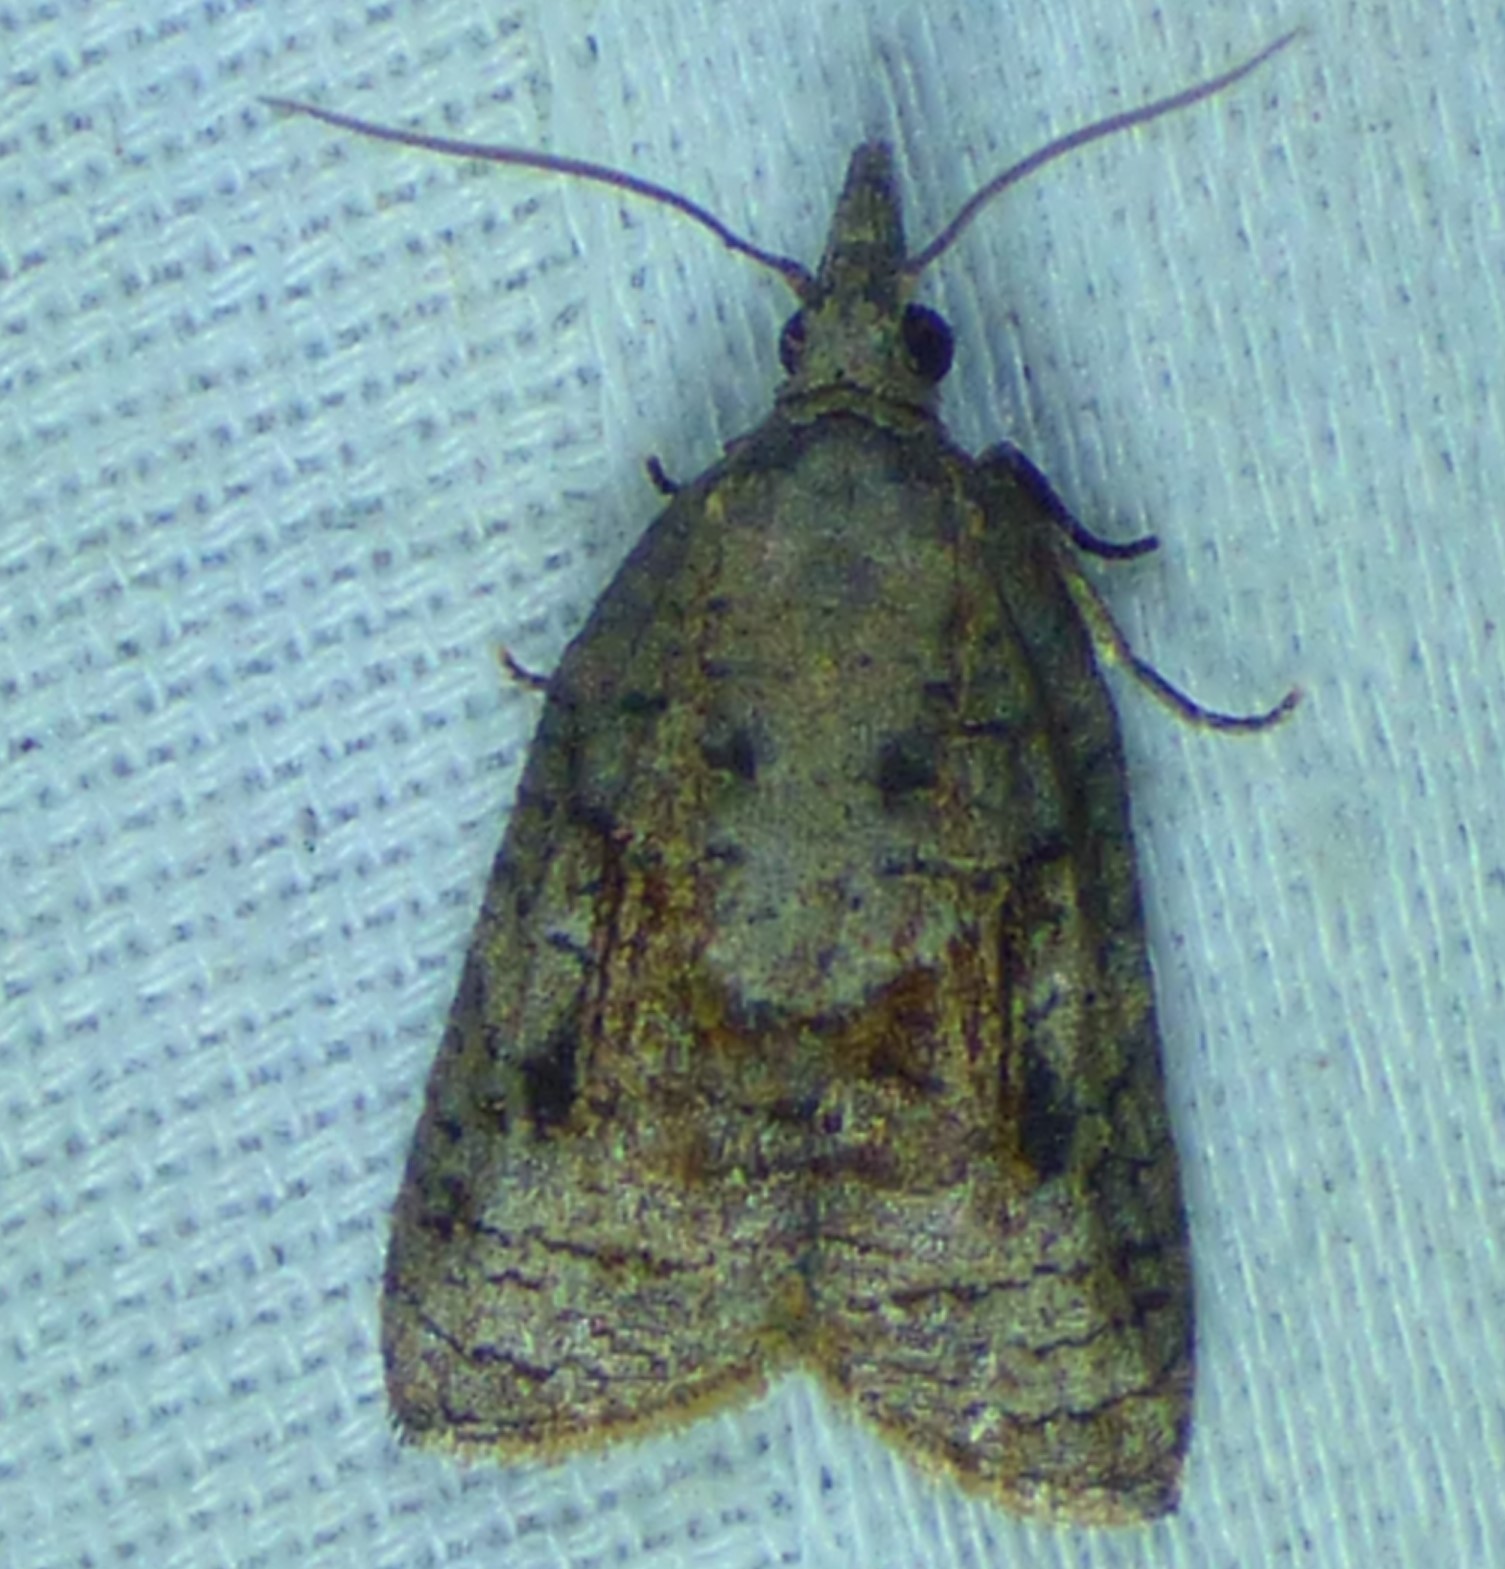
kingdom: Animalia
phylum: Arthropoda
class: Insecta
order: Lepidoptera
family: Tortricidae
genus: Platynota
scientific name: Platynota idaeusalis
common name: Tufted apple bud moth
